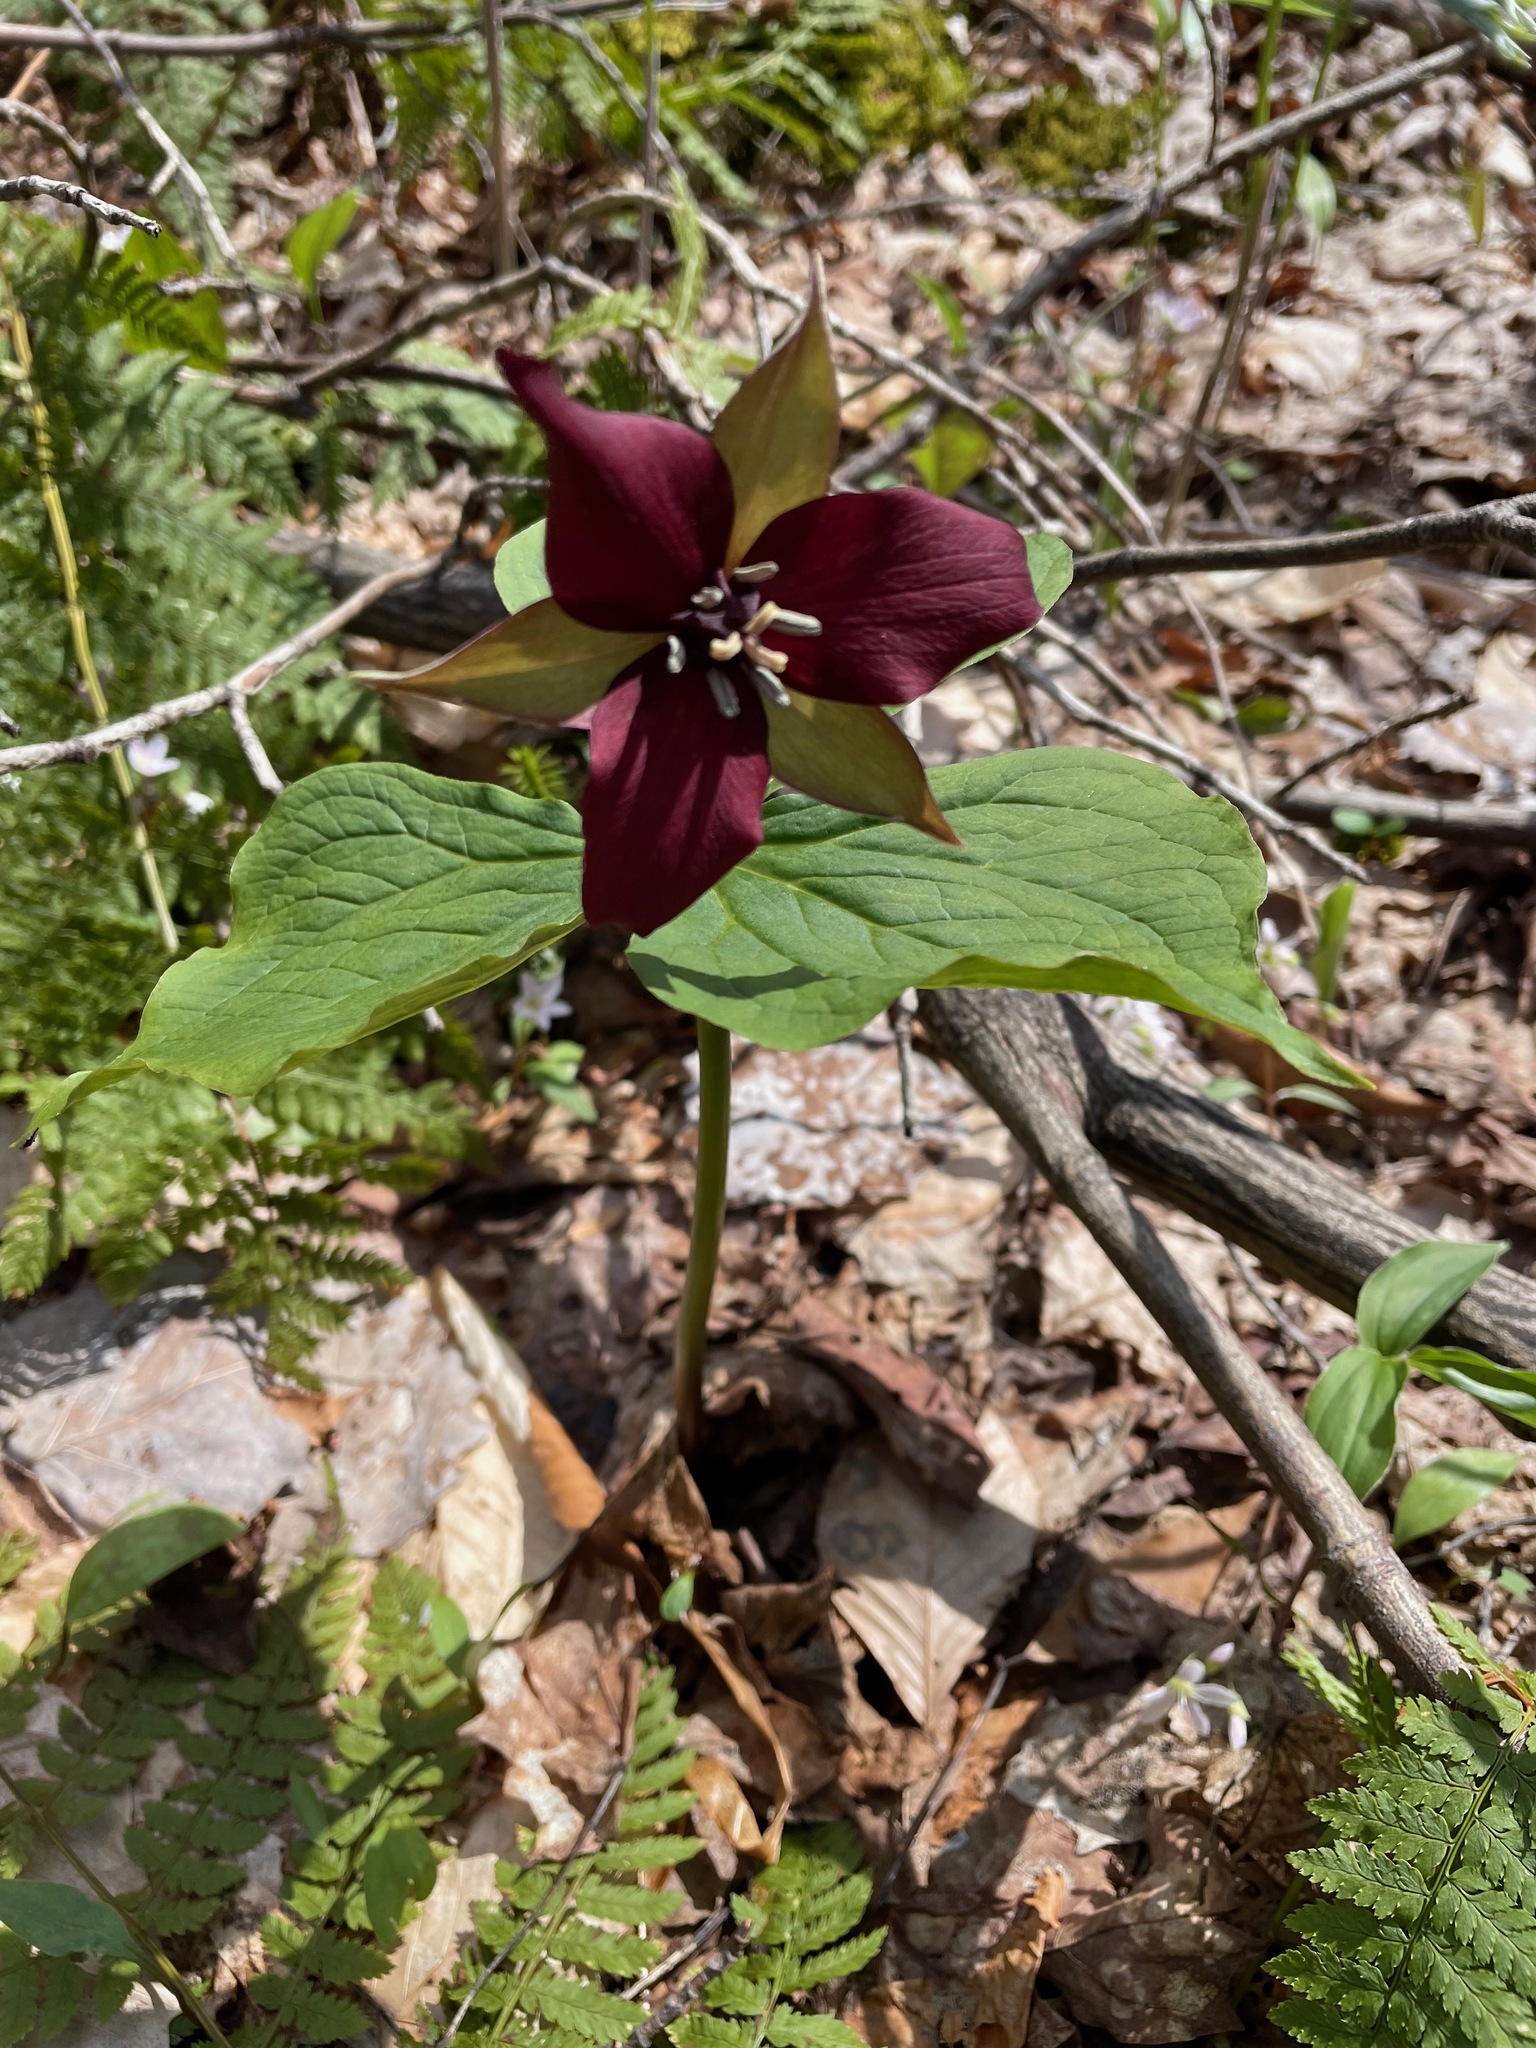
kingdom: Plantae
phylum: Tracheophyta
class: Liliopsida
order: Liliales
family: Melanthiaceae
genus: Trillium
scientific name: Trillium erectum
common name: Purple trillium
